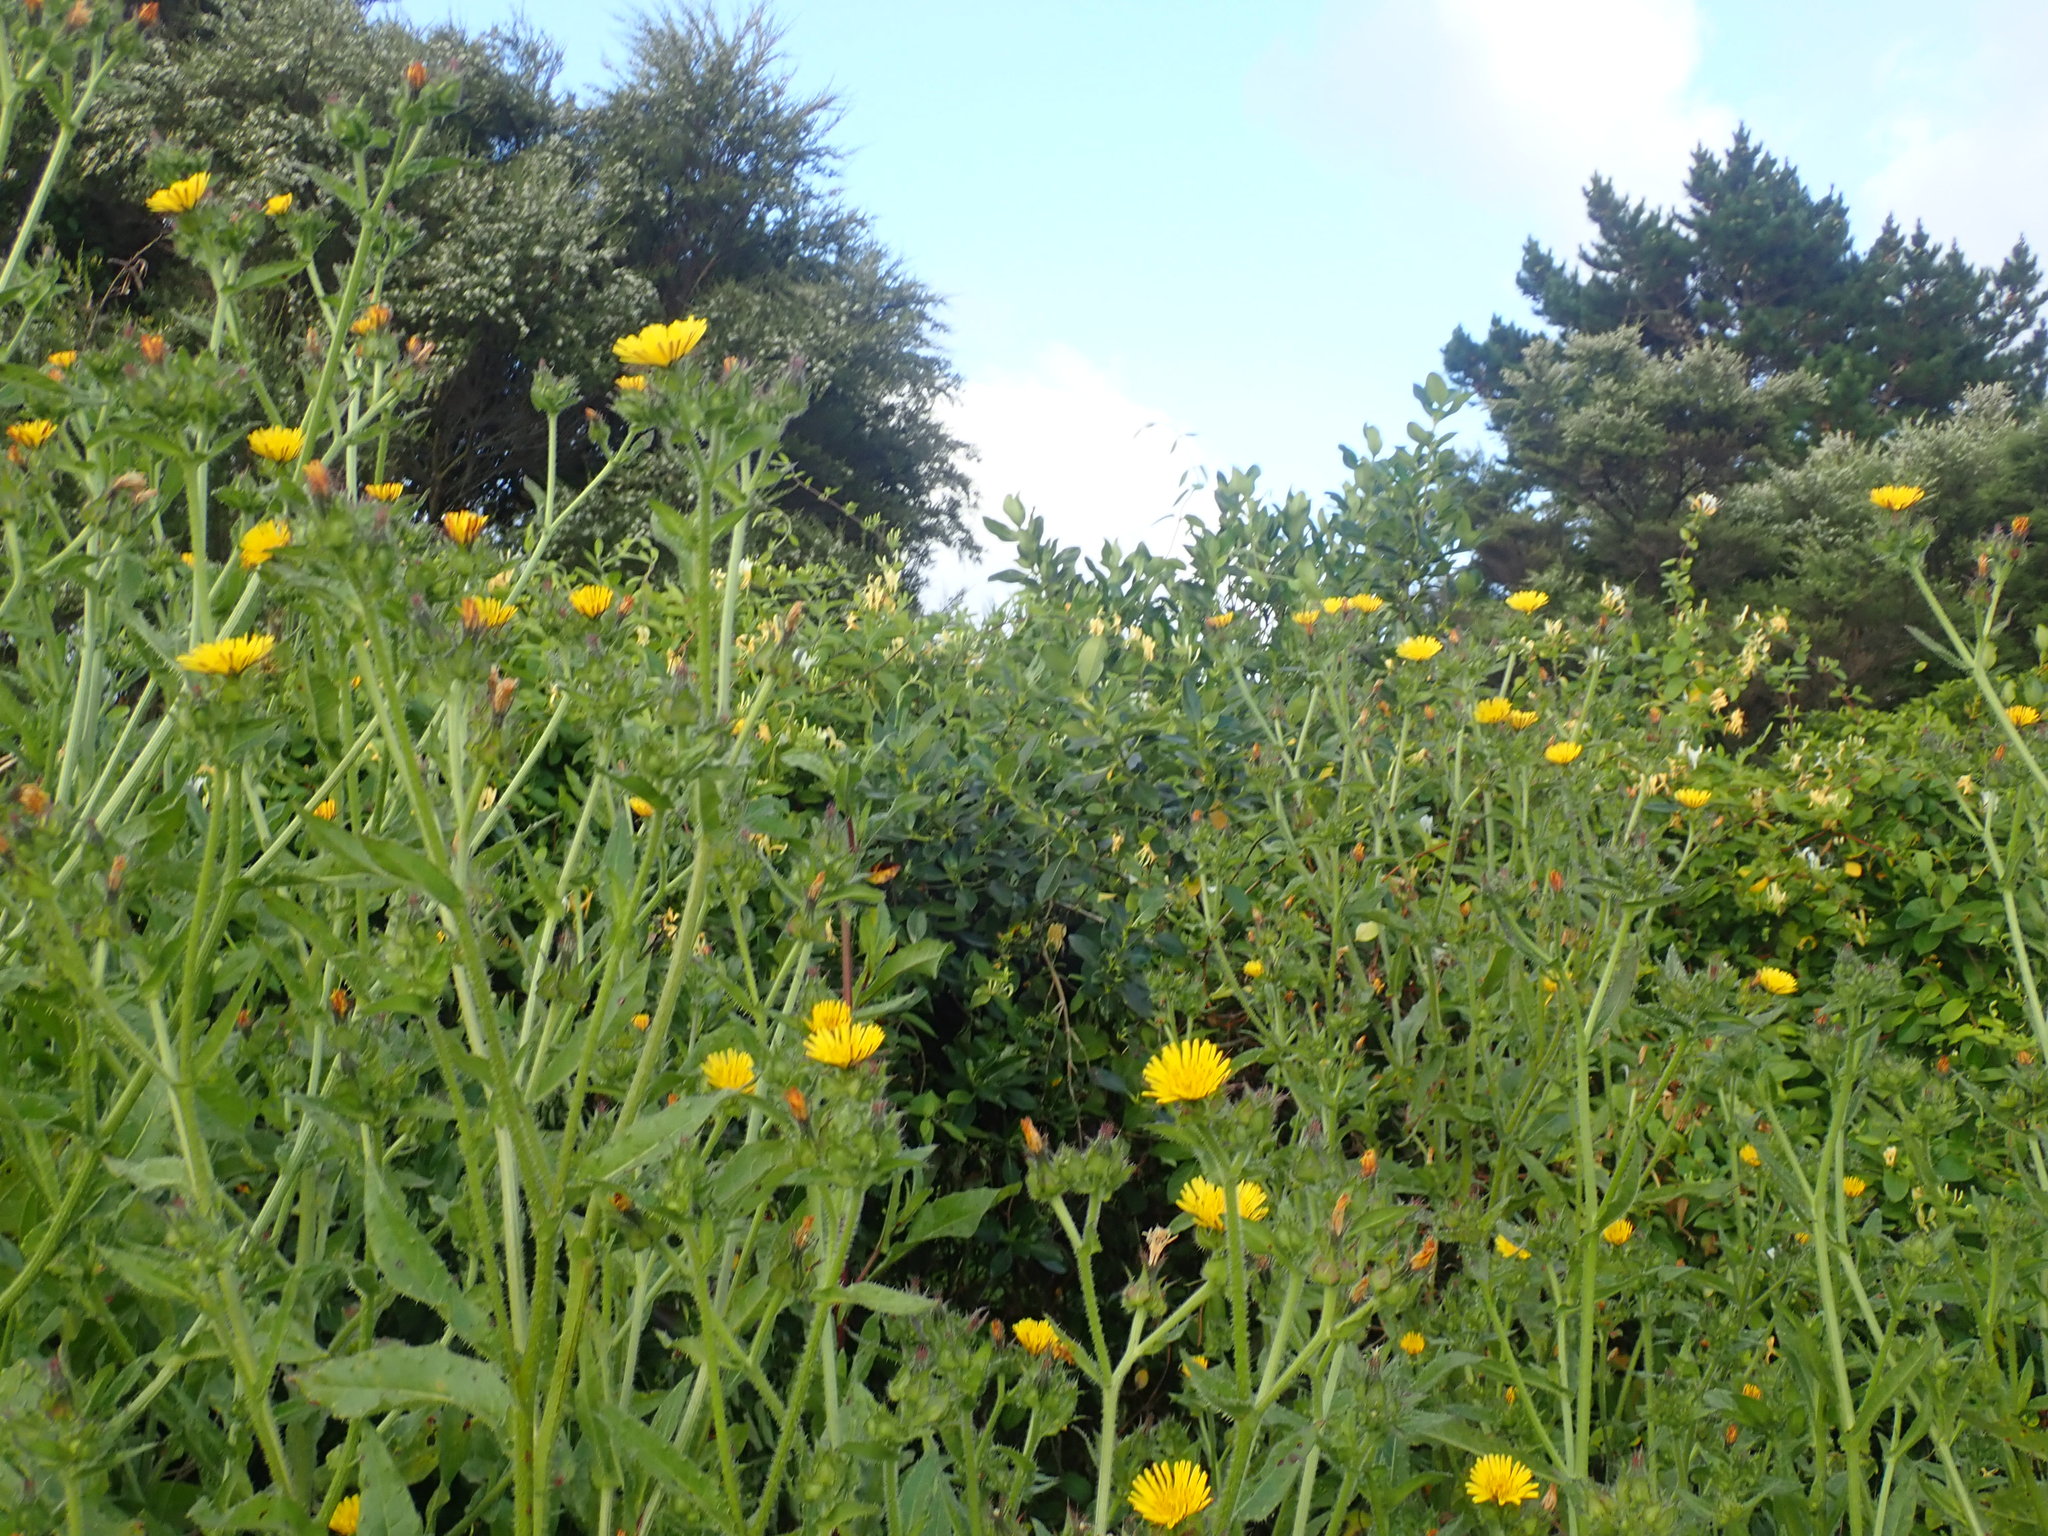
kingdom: Plantae
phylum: Tracheophyta
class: Magnoliopsida
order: Asterales
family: Asteraceae
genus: Helminthotheca
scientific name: Helminthotheca echioides
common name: Ox-tongue
